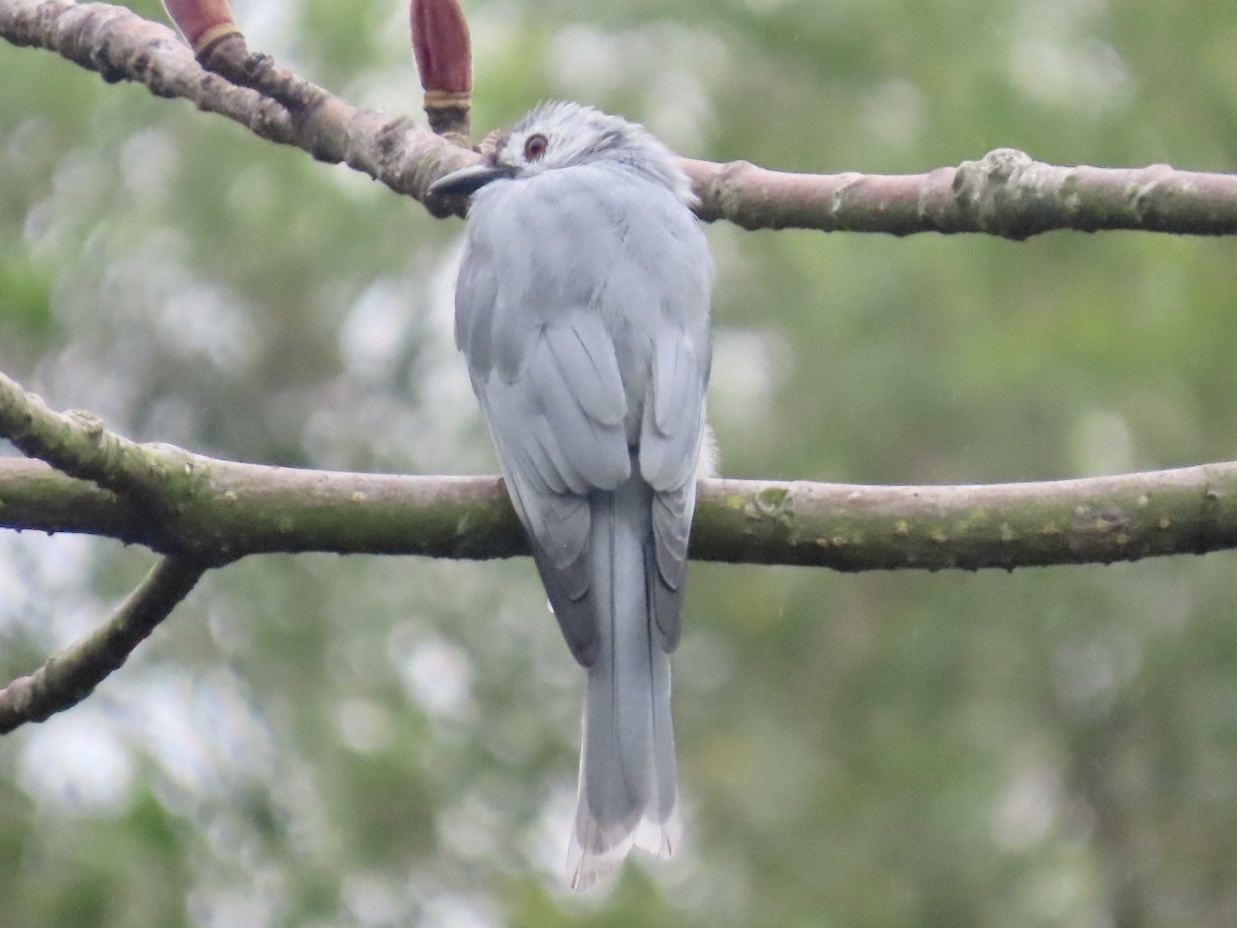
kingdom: Animalia
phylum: Chordata
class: Aves
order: Passeriformes
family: Dicruridae
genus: Dicrurus
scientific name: Dicrurus leucophaeus
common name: Ashy drongo
